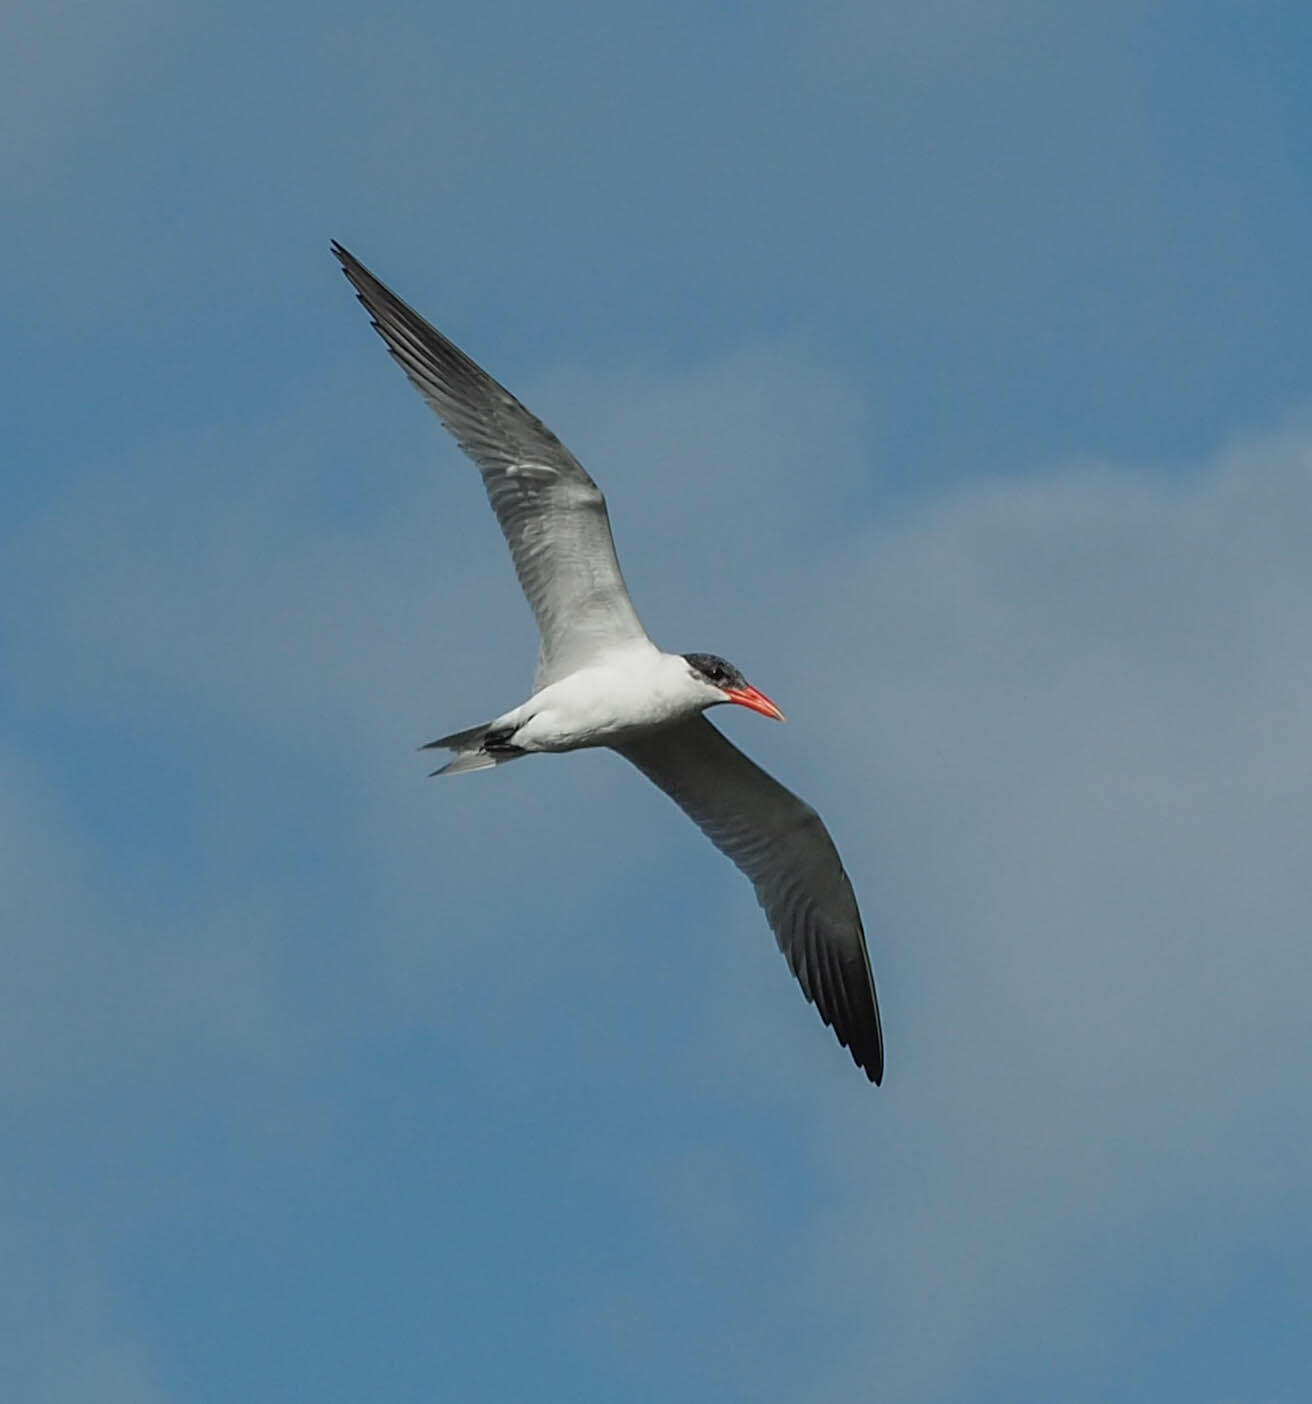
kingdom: Animalia
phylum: Chordata
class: Aves
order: Charadriiformes
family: Laridae
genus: Hydroprogne
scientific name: Hydroprogne caspia
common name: Caspian tern
